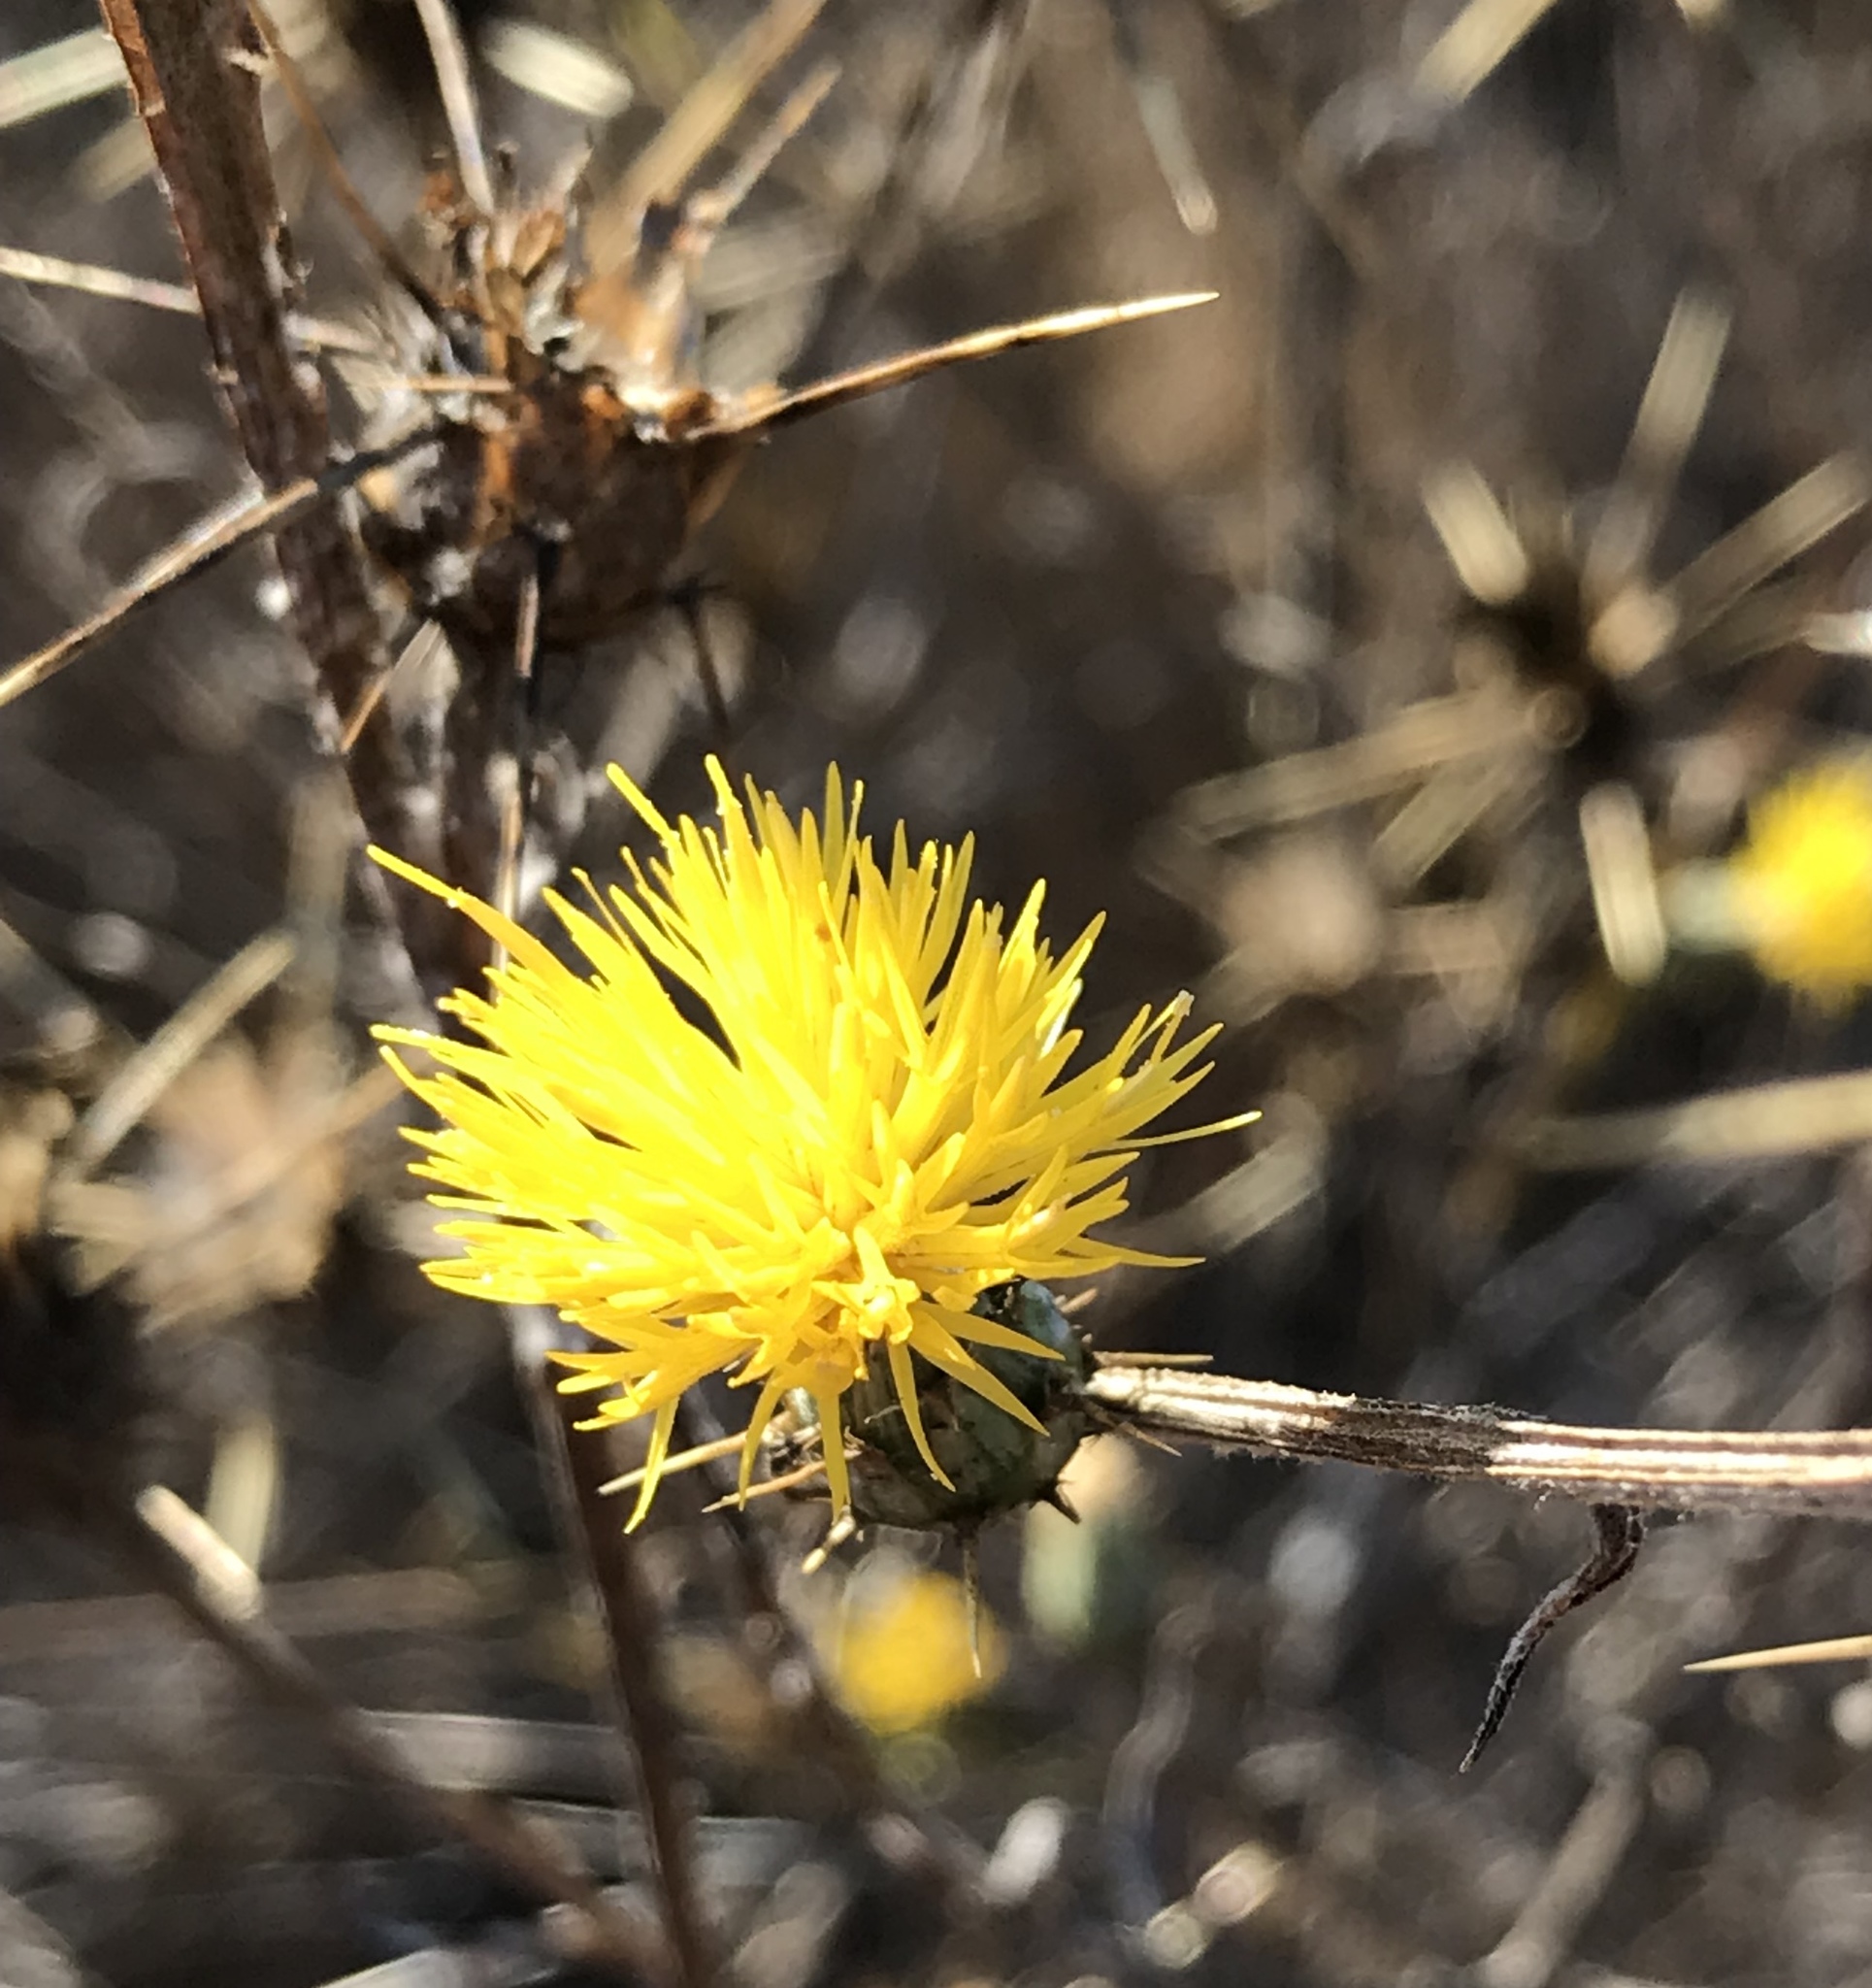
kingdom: Plantae
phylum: Tracheophyta
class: Magnoliopsida
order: Asterales
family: Asteraceae
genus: Centaurea
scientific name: Centaurea solstitialis
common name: Yellow star-thistle
